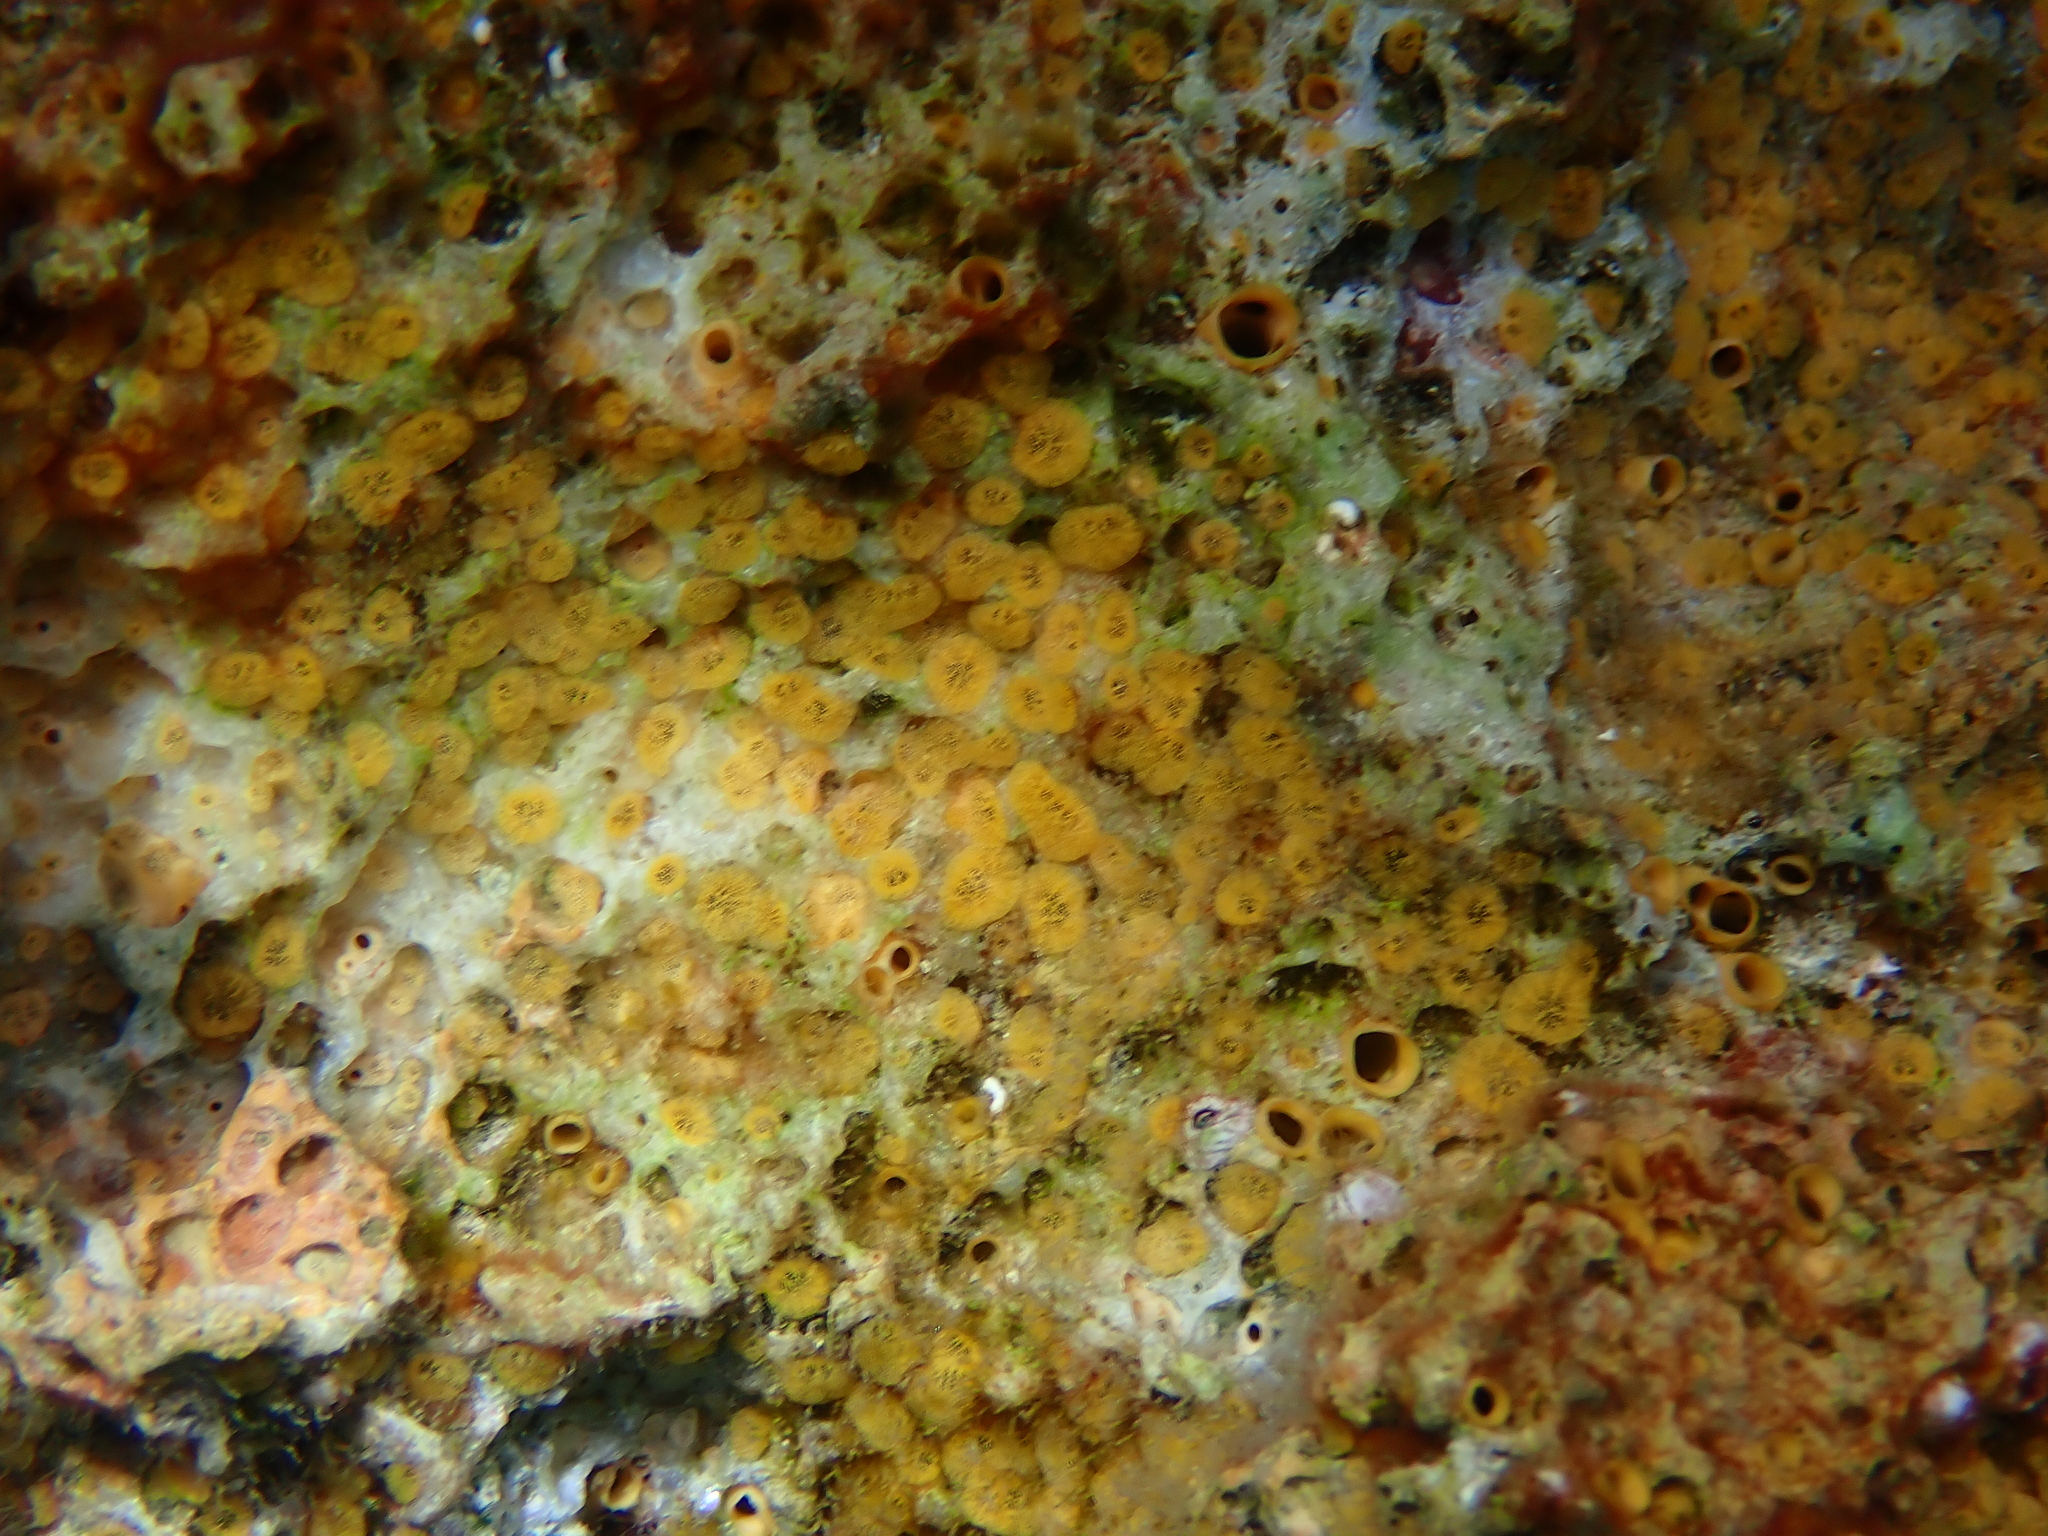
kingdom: Animalia
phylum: Porifera
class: Demospongiae
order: Clionaida
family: Clionaidae
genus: Cliona
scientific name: Cliona celata
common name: Boring sponge
